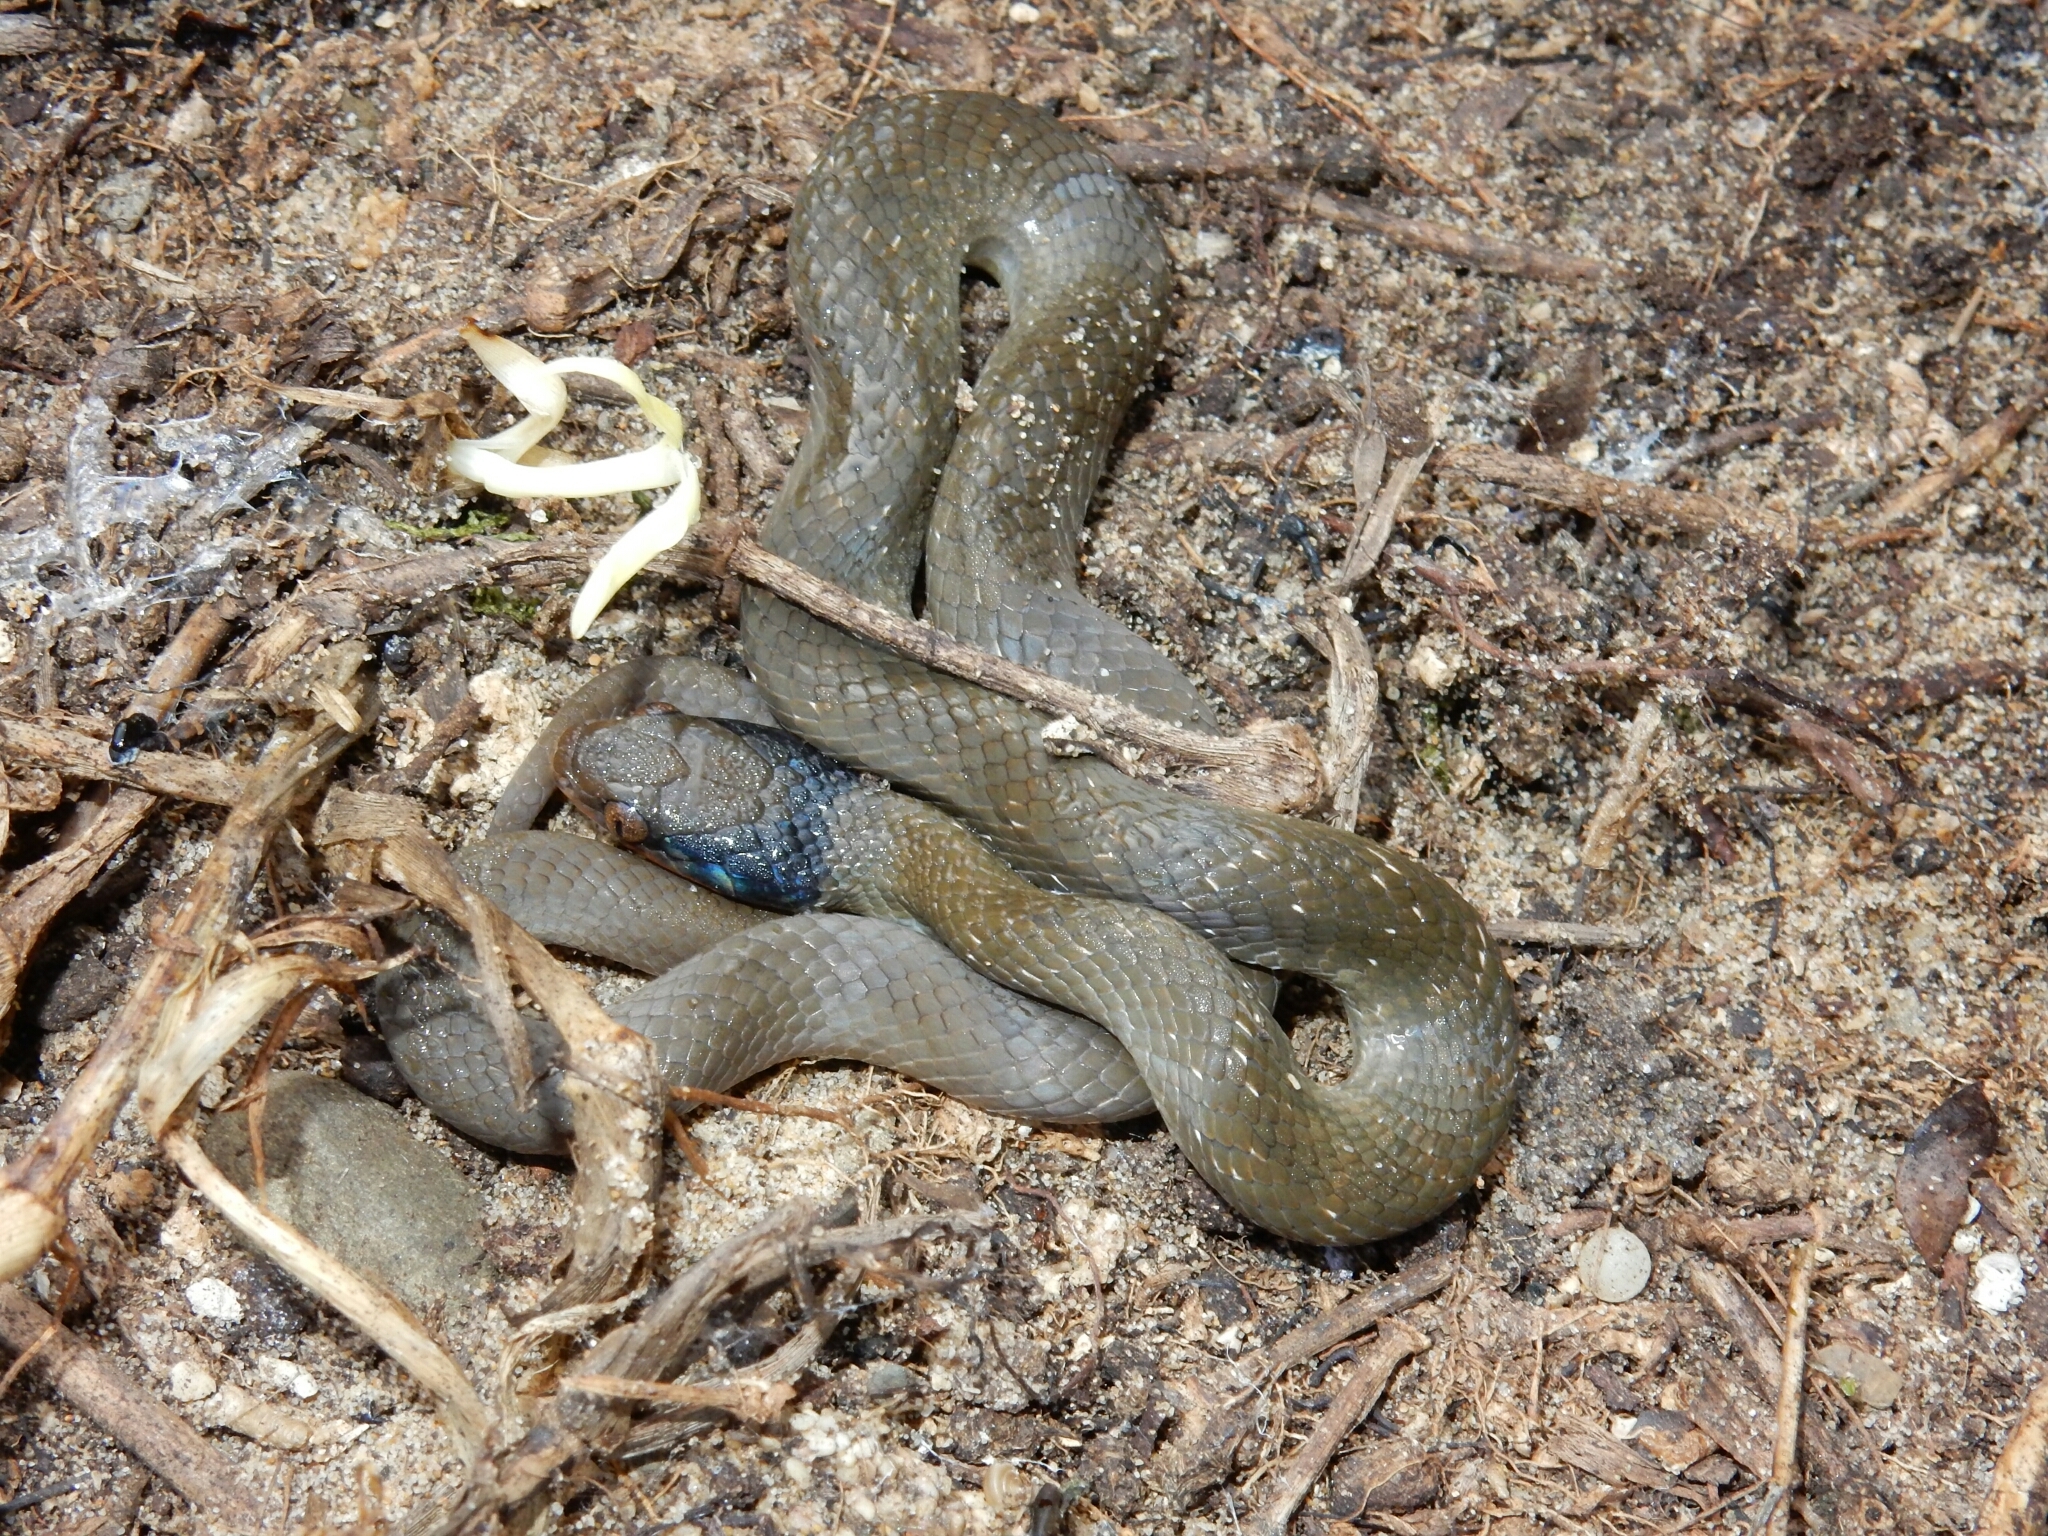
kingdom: Animalia
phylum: Chordata
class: Squamata
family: Colubridae
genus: Crotaphopeltis
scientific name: Crotaphopeltis hotamboeia
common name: Red-lipped snake
